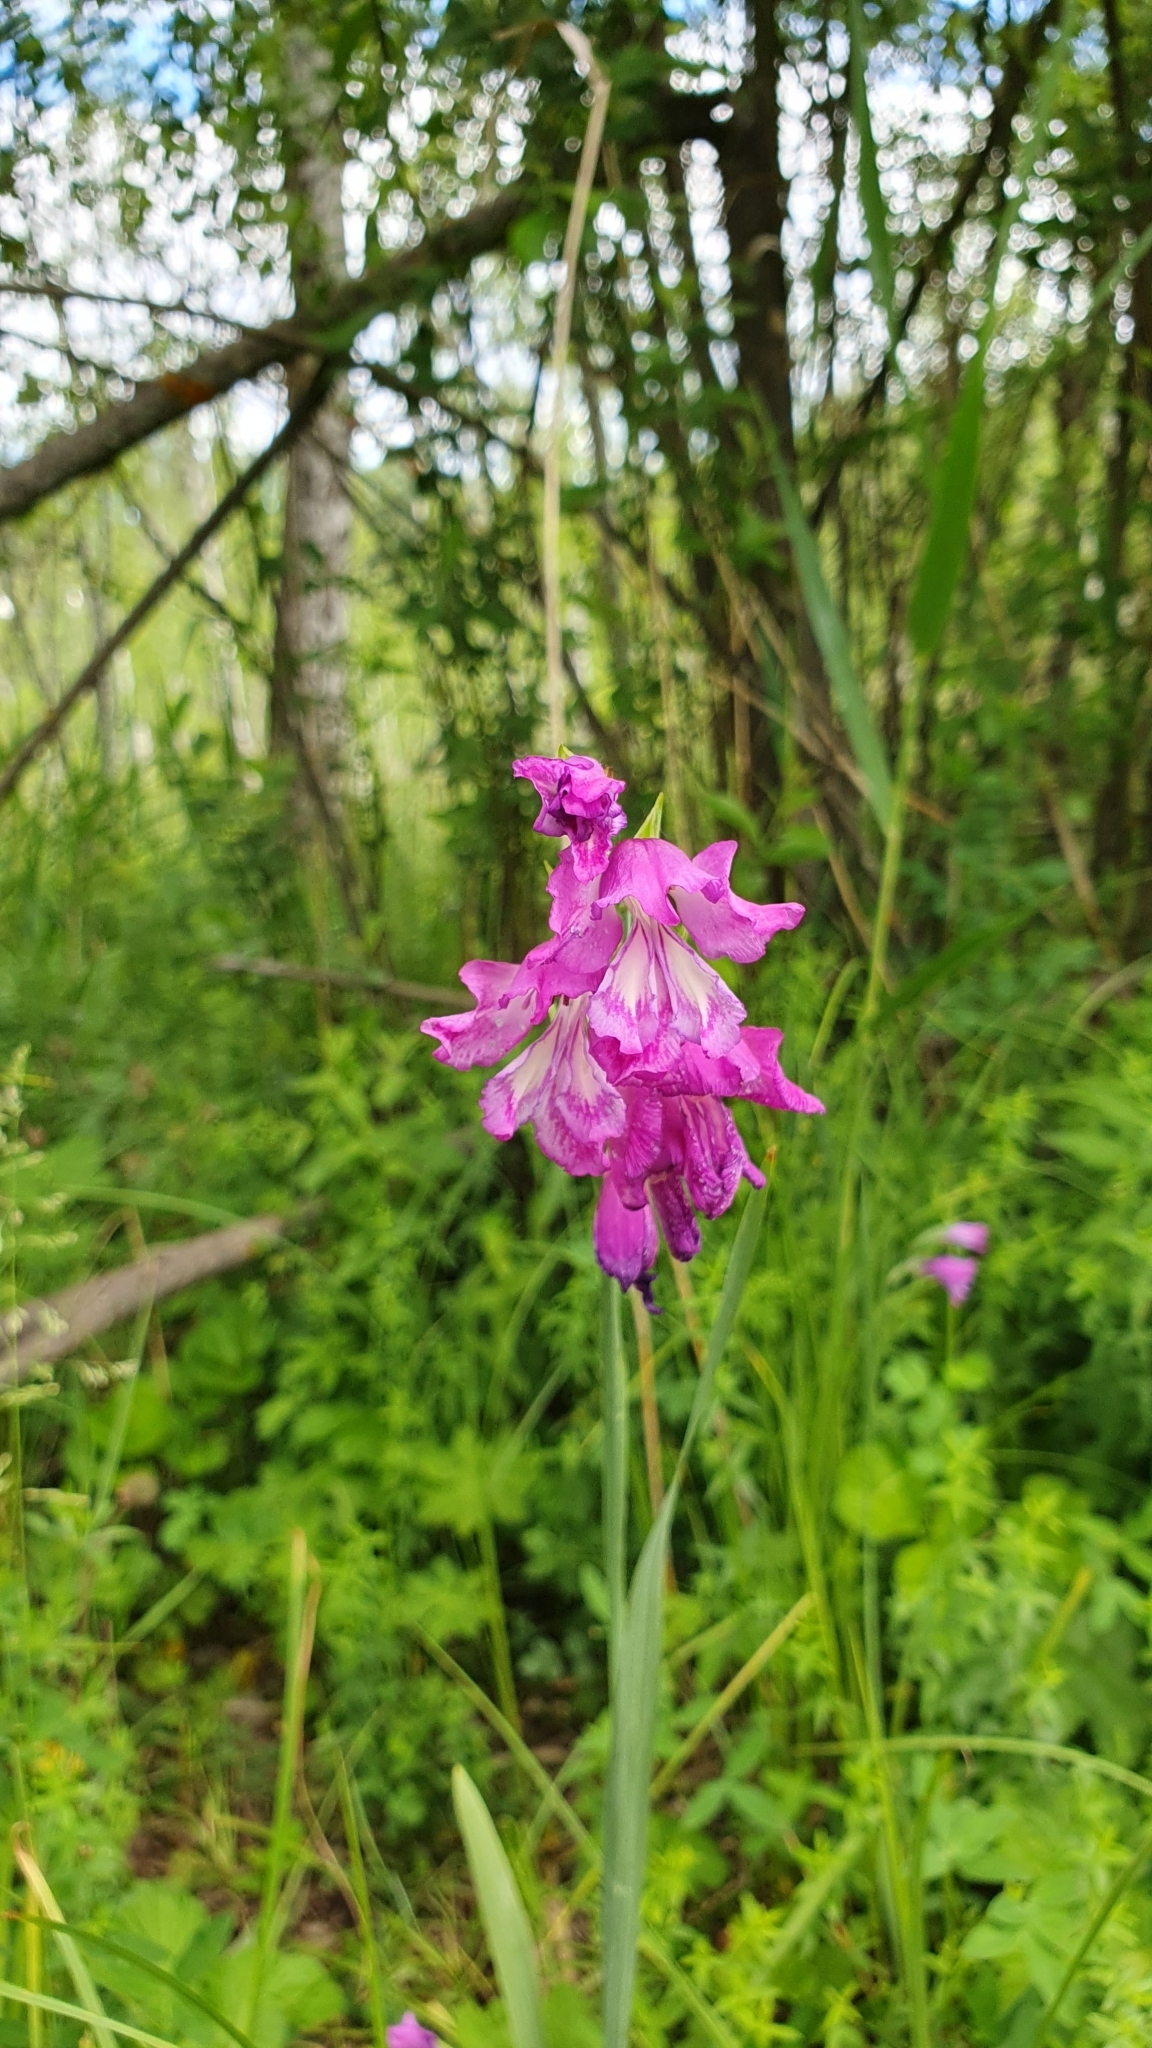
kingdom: Plantae
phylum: Tracheophyta
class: Liliopsida
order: Asparagales
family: Iridaceae
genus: Gladiolus
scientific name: Gladiolus tenuis
